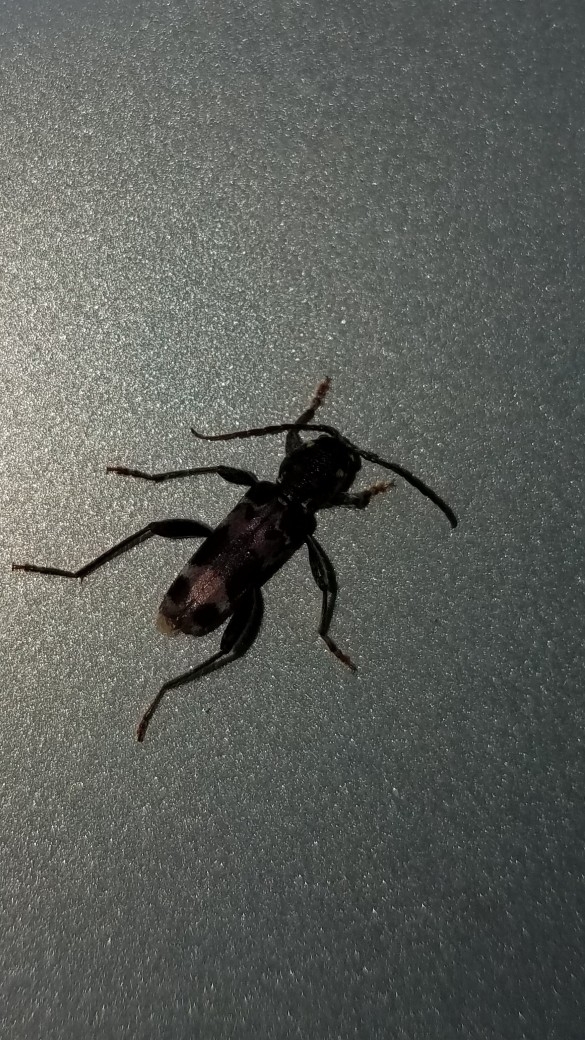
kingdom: Animalia
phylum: Arthropoda
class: Insecta
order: Coleoptera
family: Cerambycidae
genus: Xylotrechus
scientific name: Xylotrechus colonus
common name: Long-horned beetle
